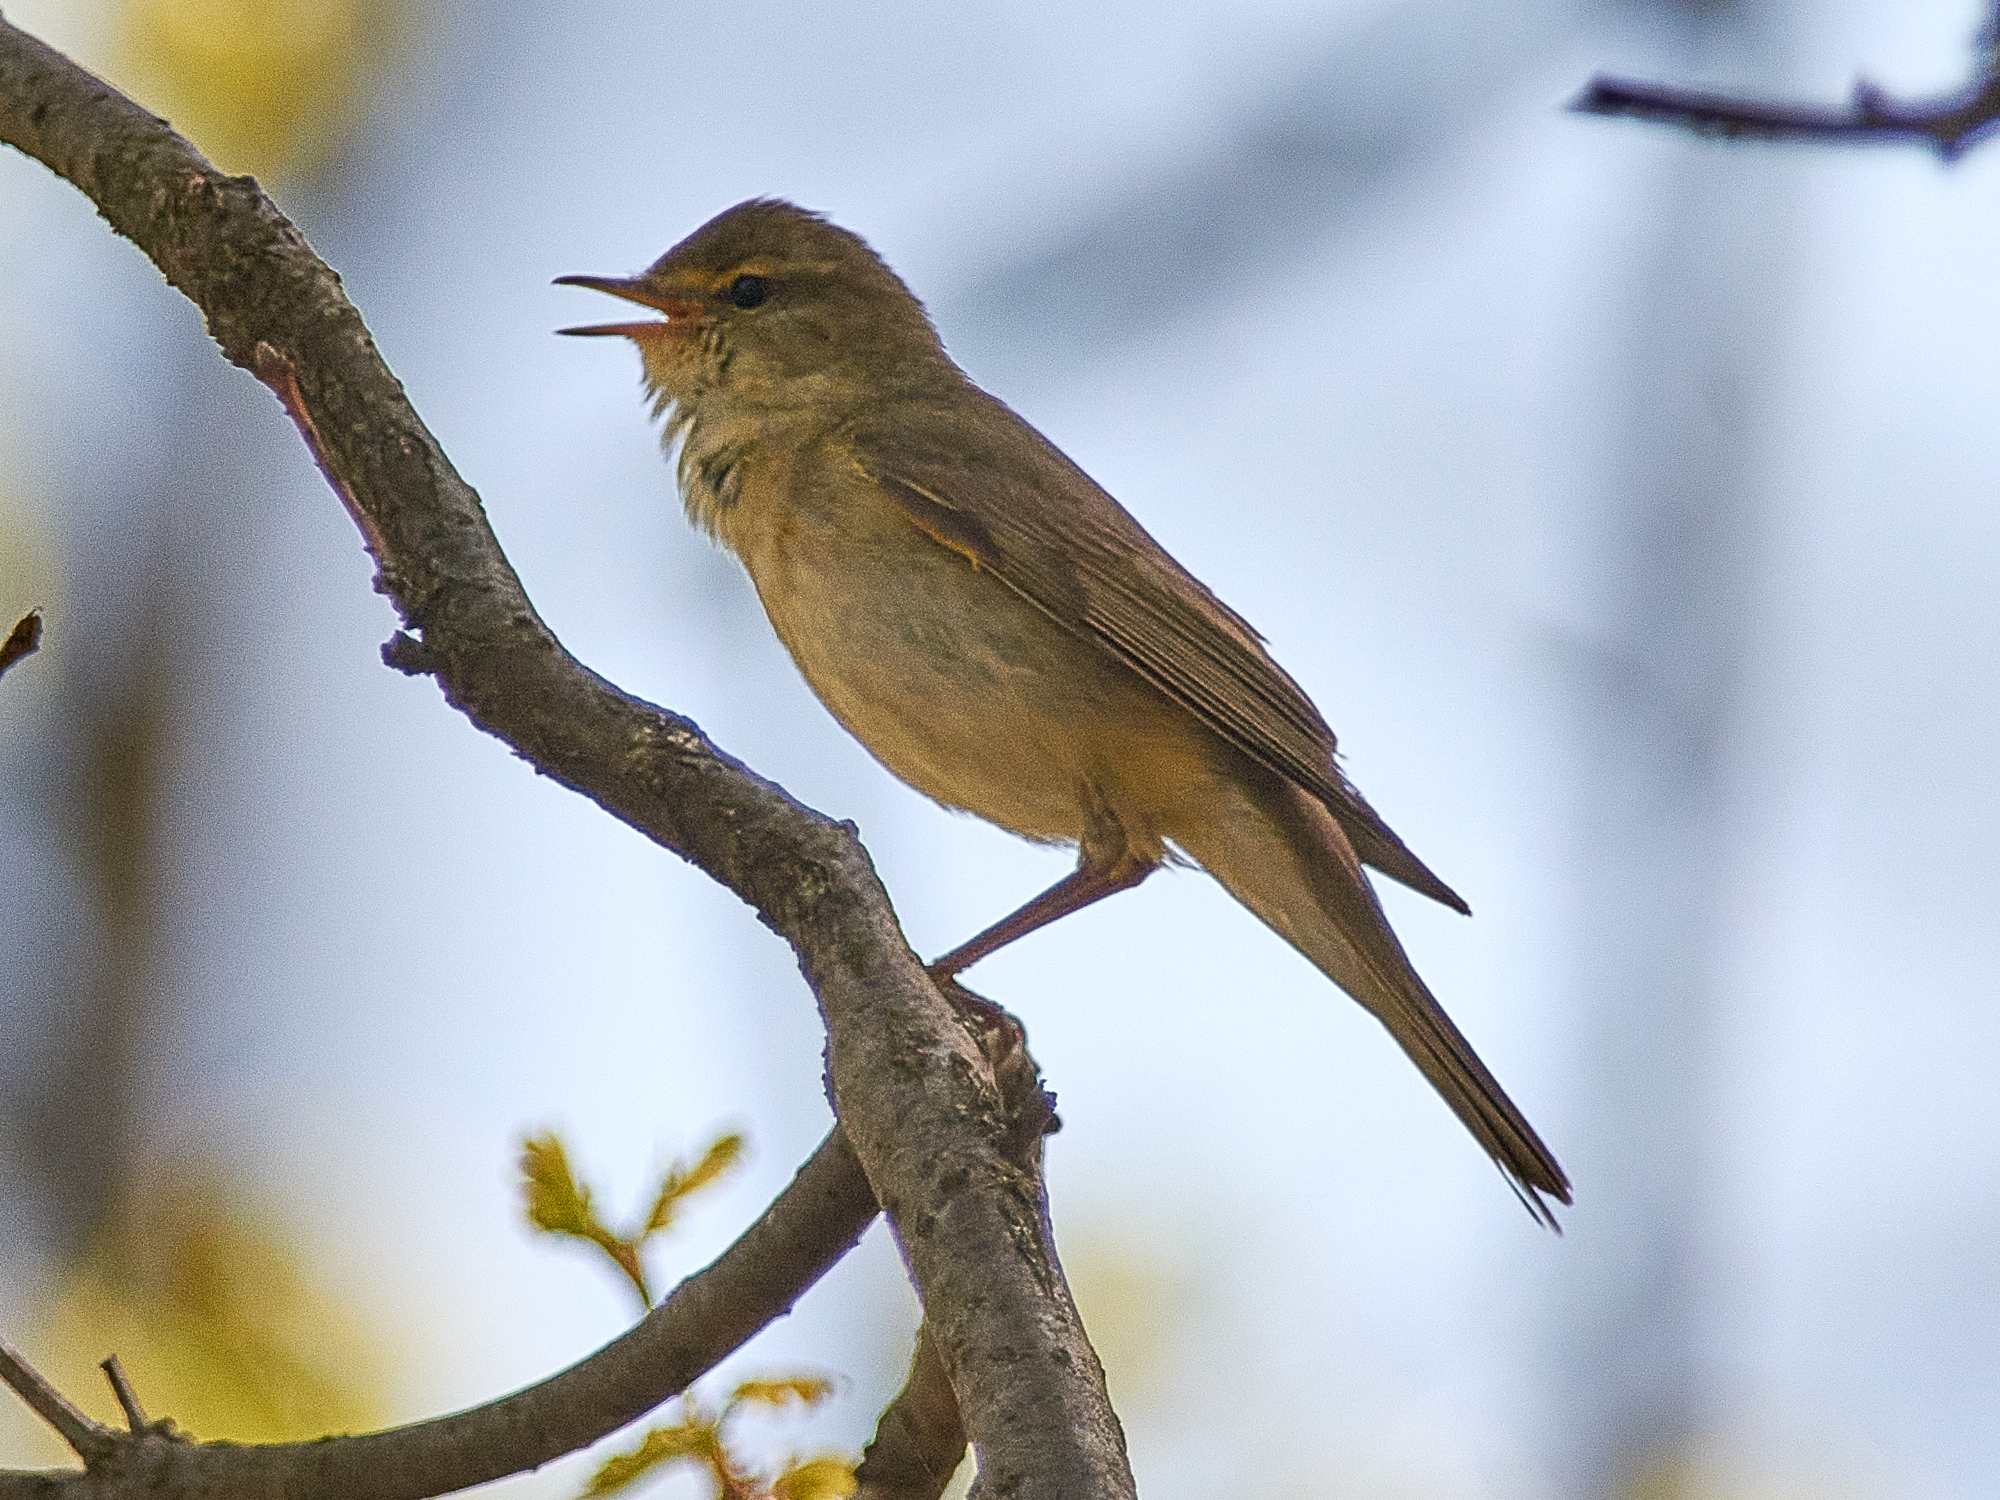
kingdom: Animalia
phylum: Chordata
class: Aves
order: Passeriformes
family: Phylloscopidae
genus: Phylloscopus
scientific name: Phylloscopus trochilus
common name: Willow warbler
